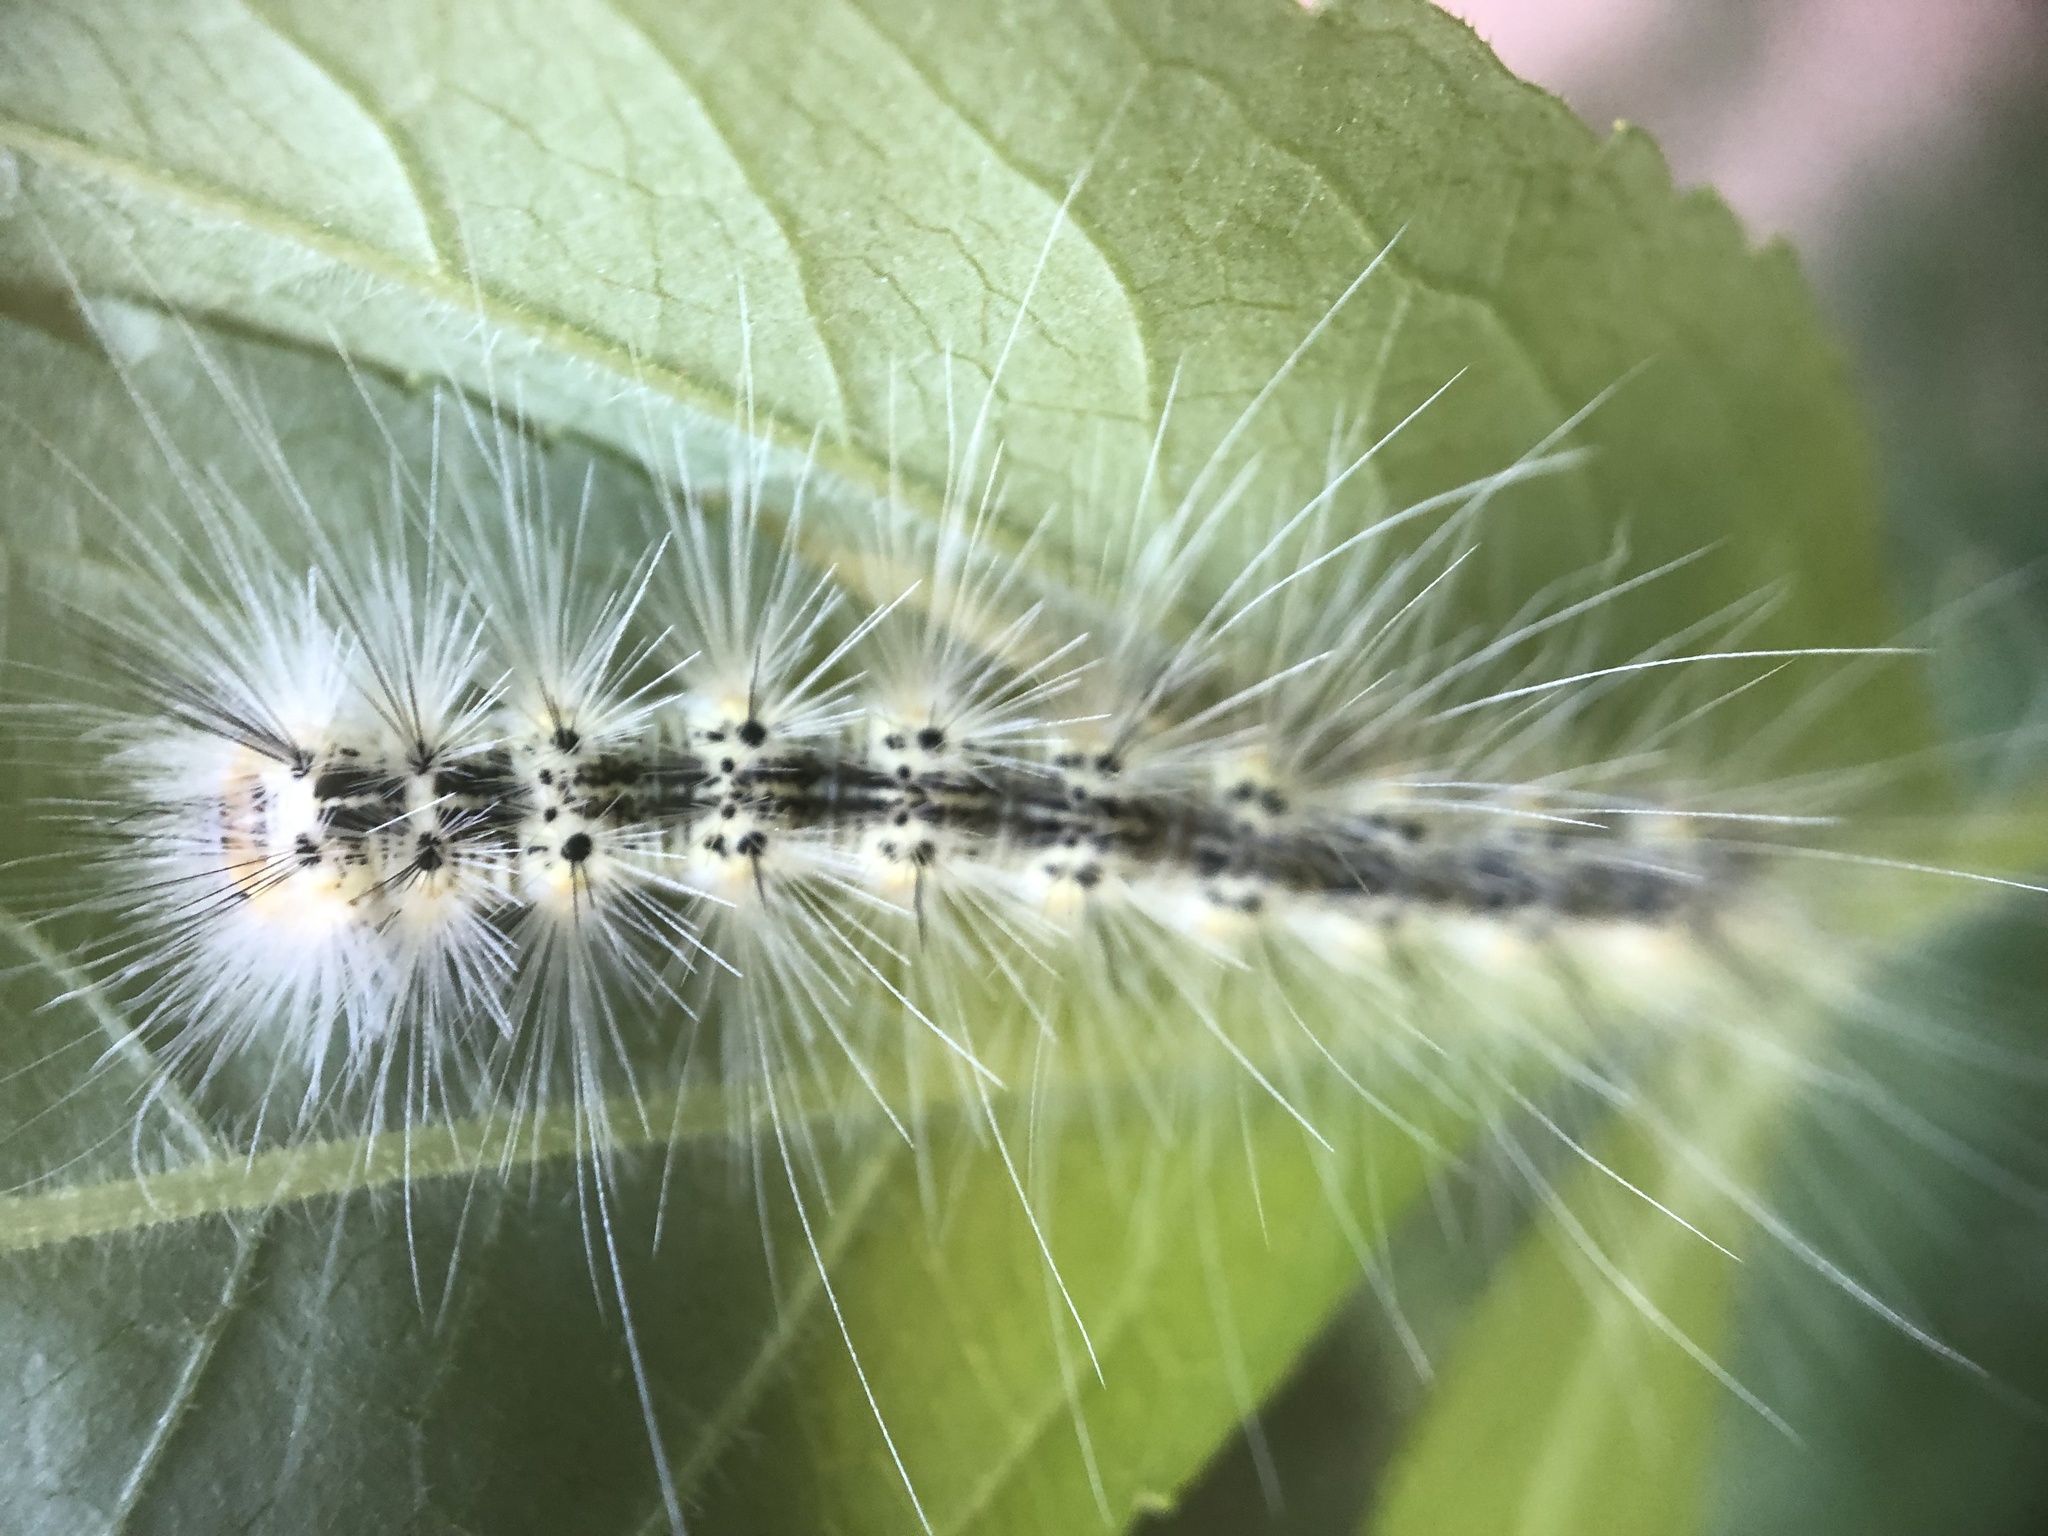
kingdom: Animalia
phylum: Arthropoda
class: Insecta
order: Lepidoptera
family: Erebidae
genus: Hyphantria
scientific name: Hyphantria cunea
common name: American white moth
